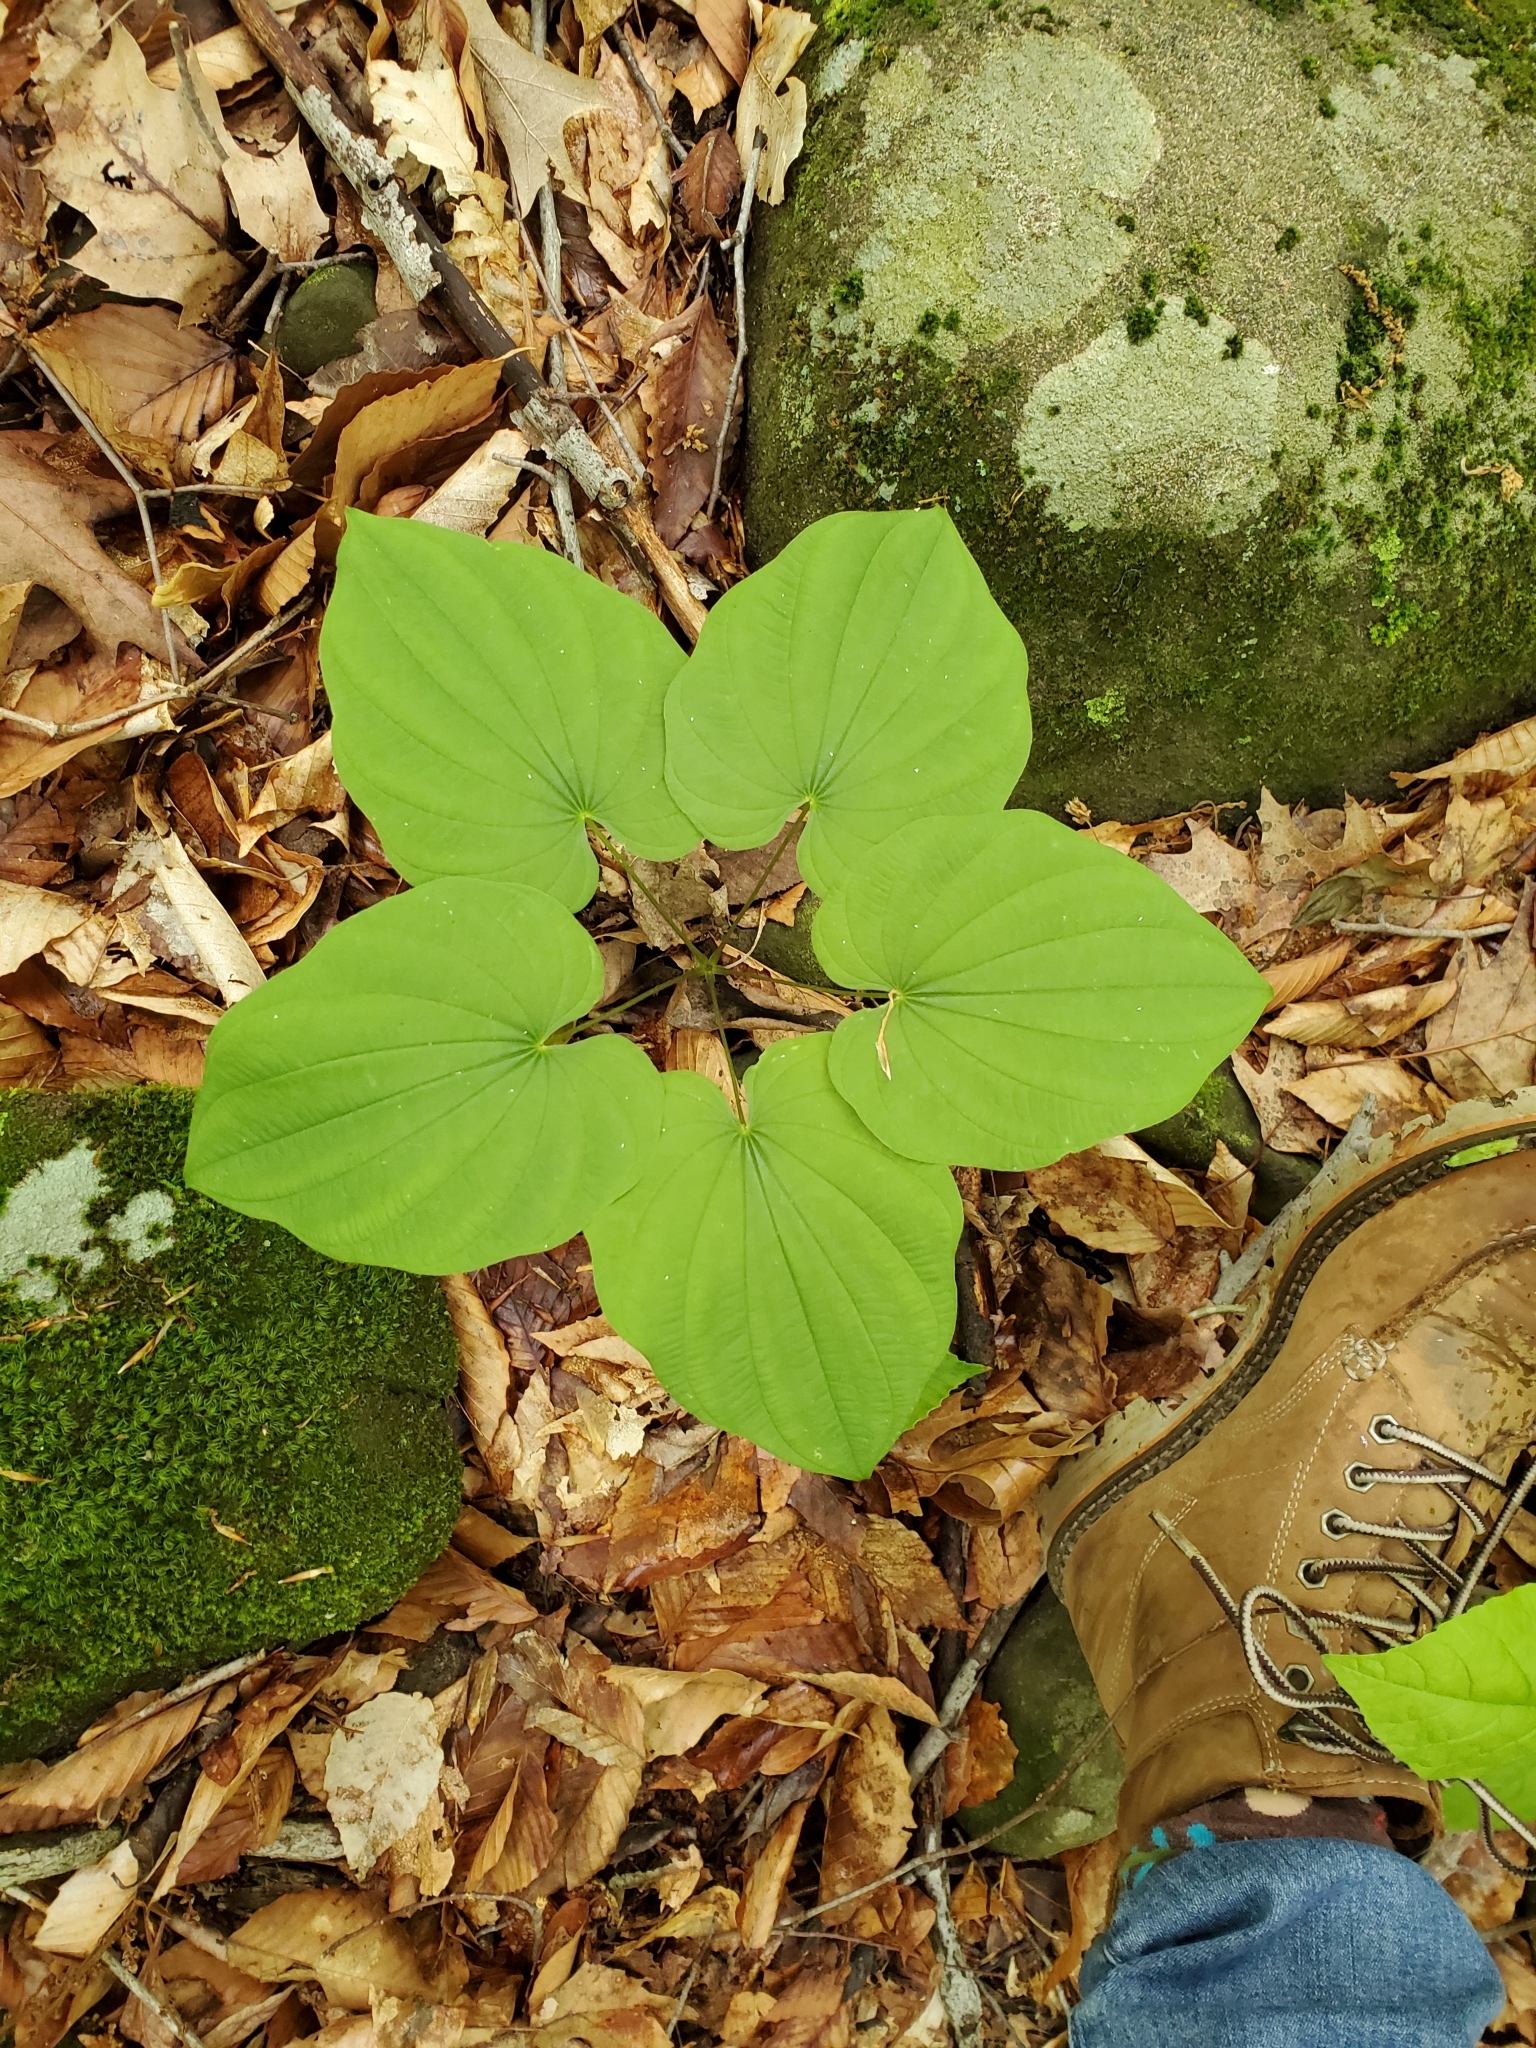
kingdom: Plantae
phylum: Tracheophyta
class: Liliopsida
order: Dioscoreales
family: Dioscoreaceae
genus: Dioscorea
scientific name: Dioscorea villosa
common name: Wild yam
